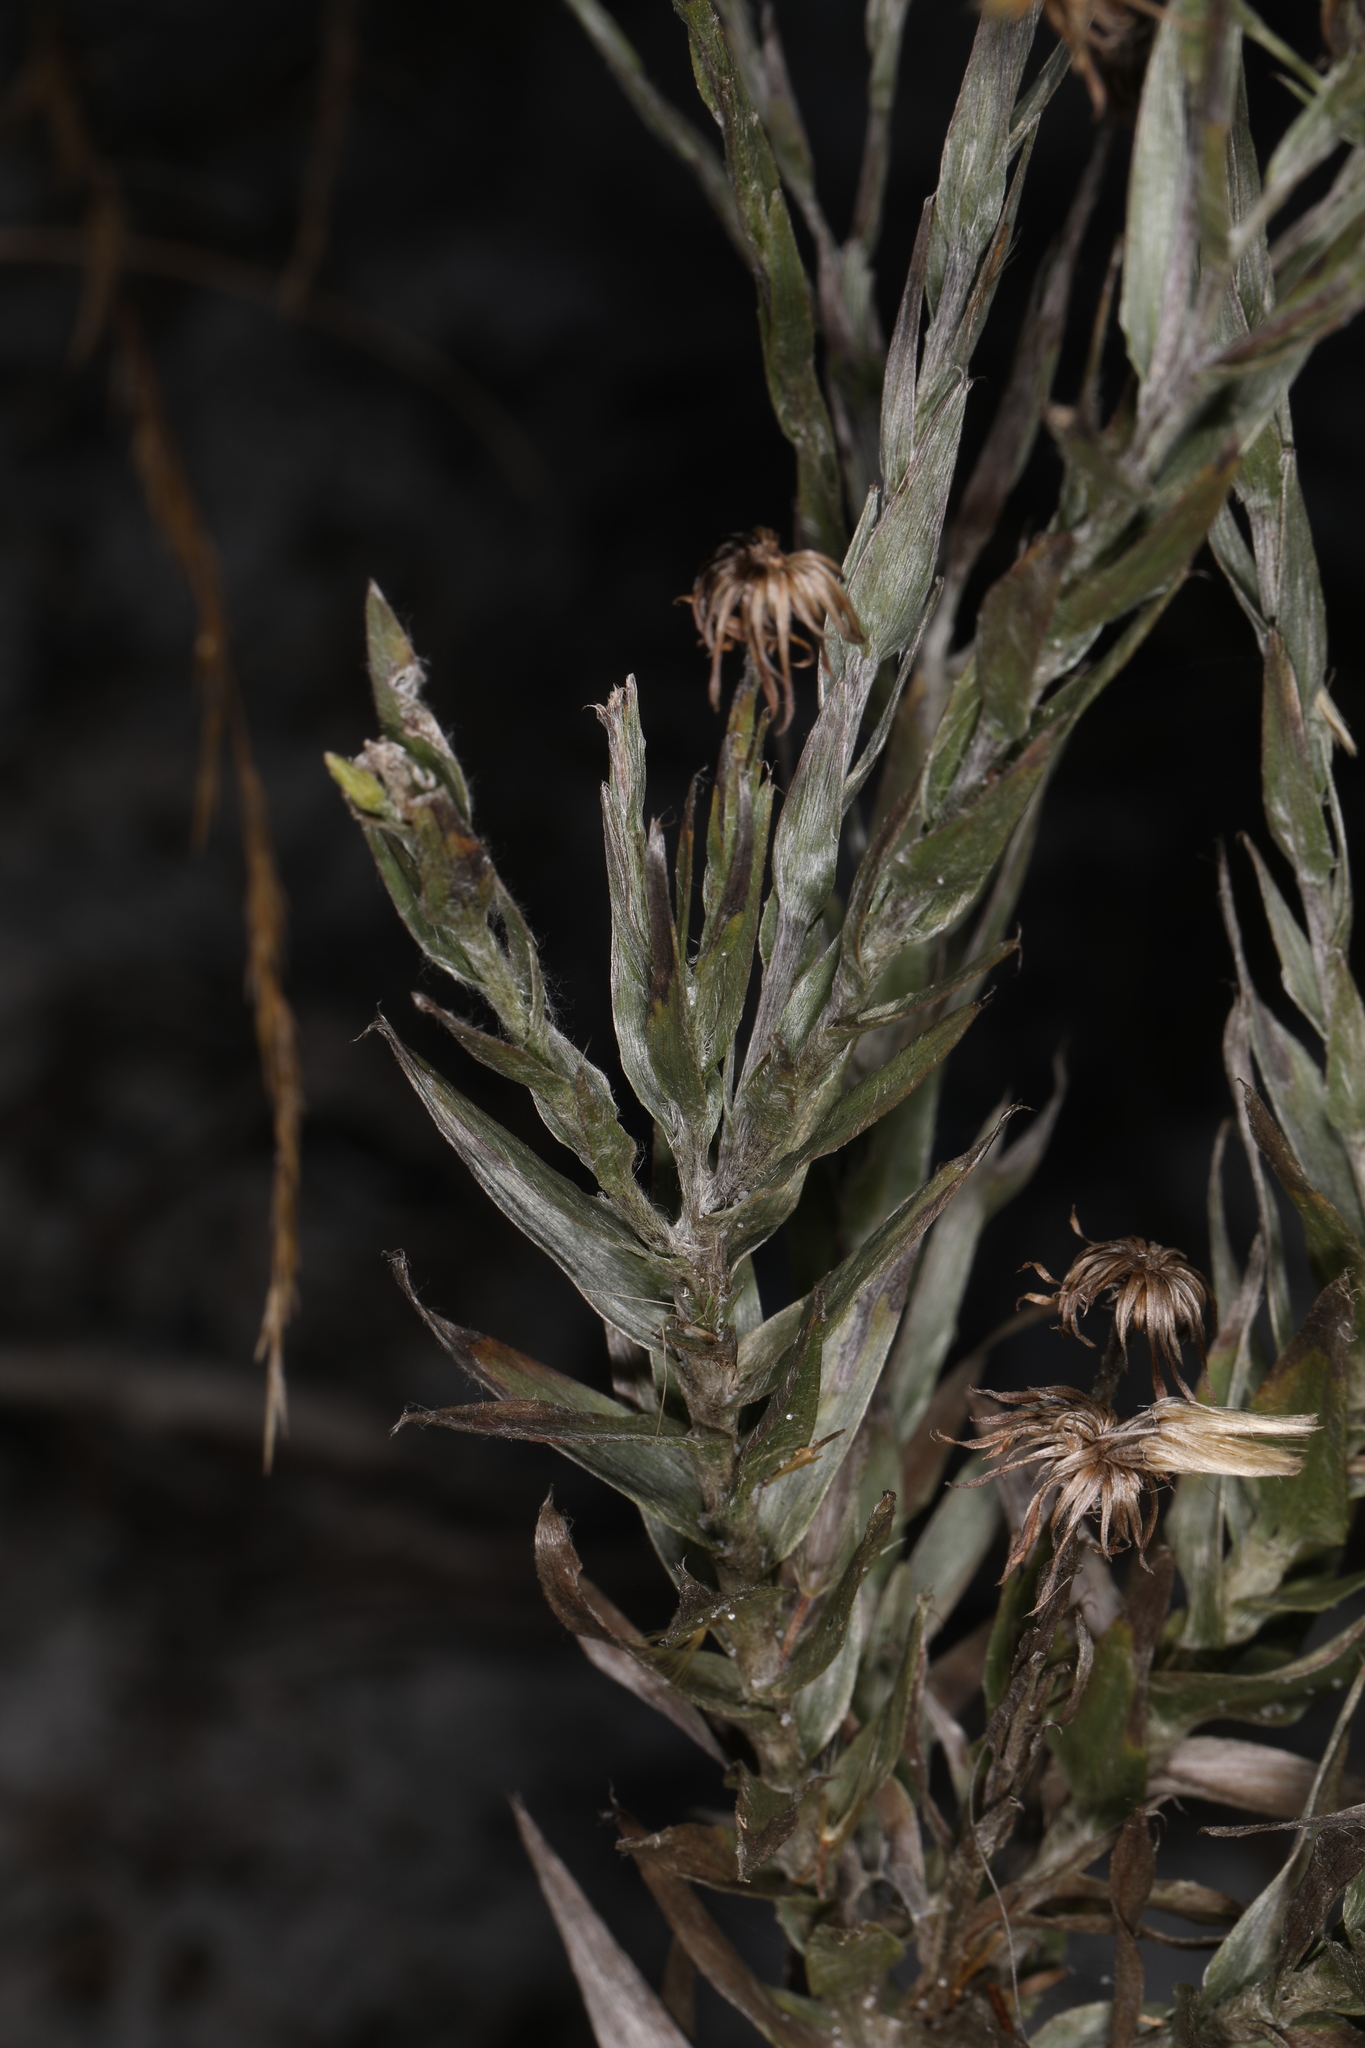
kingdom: Plantae
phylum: Tracheophyta
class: Magnoliopsida
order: Asterales
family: Asteraceae
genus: Pityopsis
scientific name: Pityopsis graminifolia
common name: Grass-leaf golden-aster
